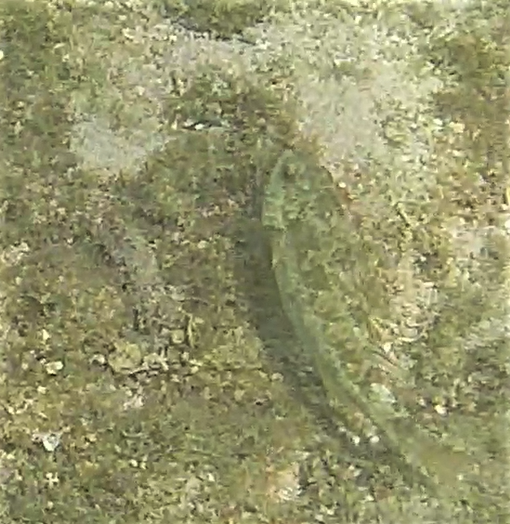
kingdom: Animalia
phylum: Chordata
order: Perciformes
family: Scaridae
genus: Sparisoma
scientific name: Sparisoma
